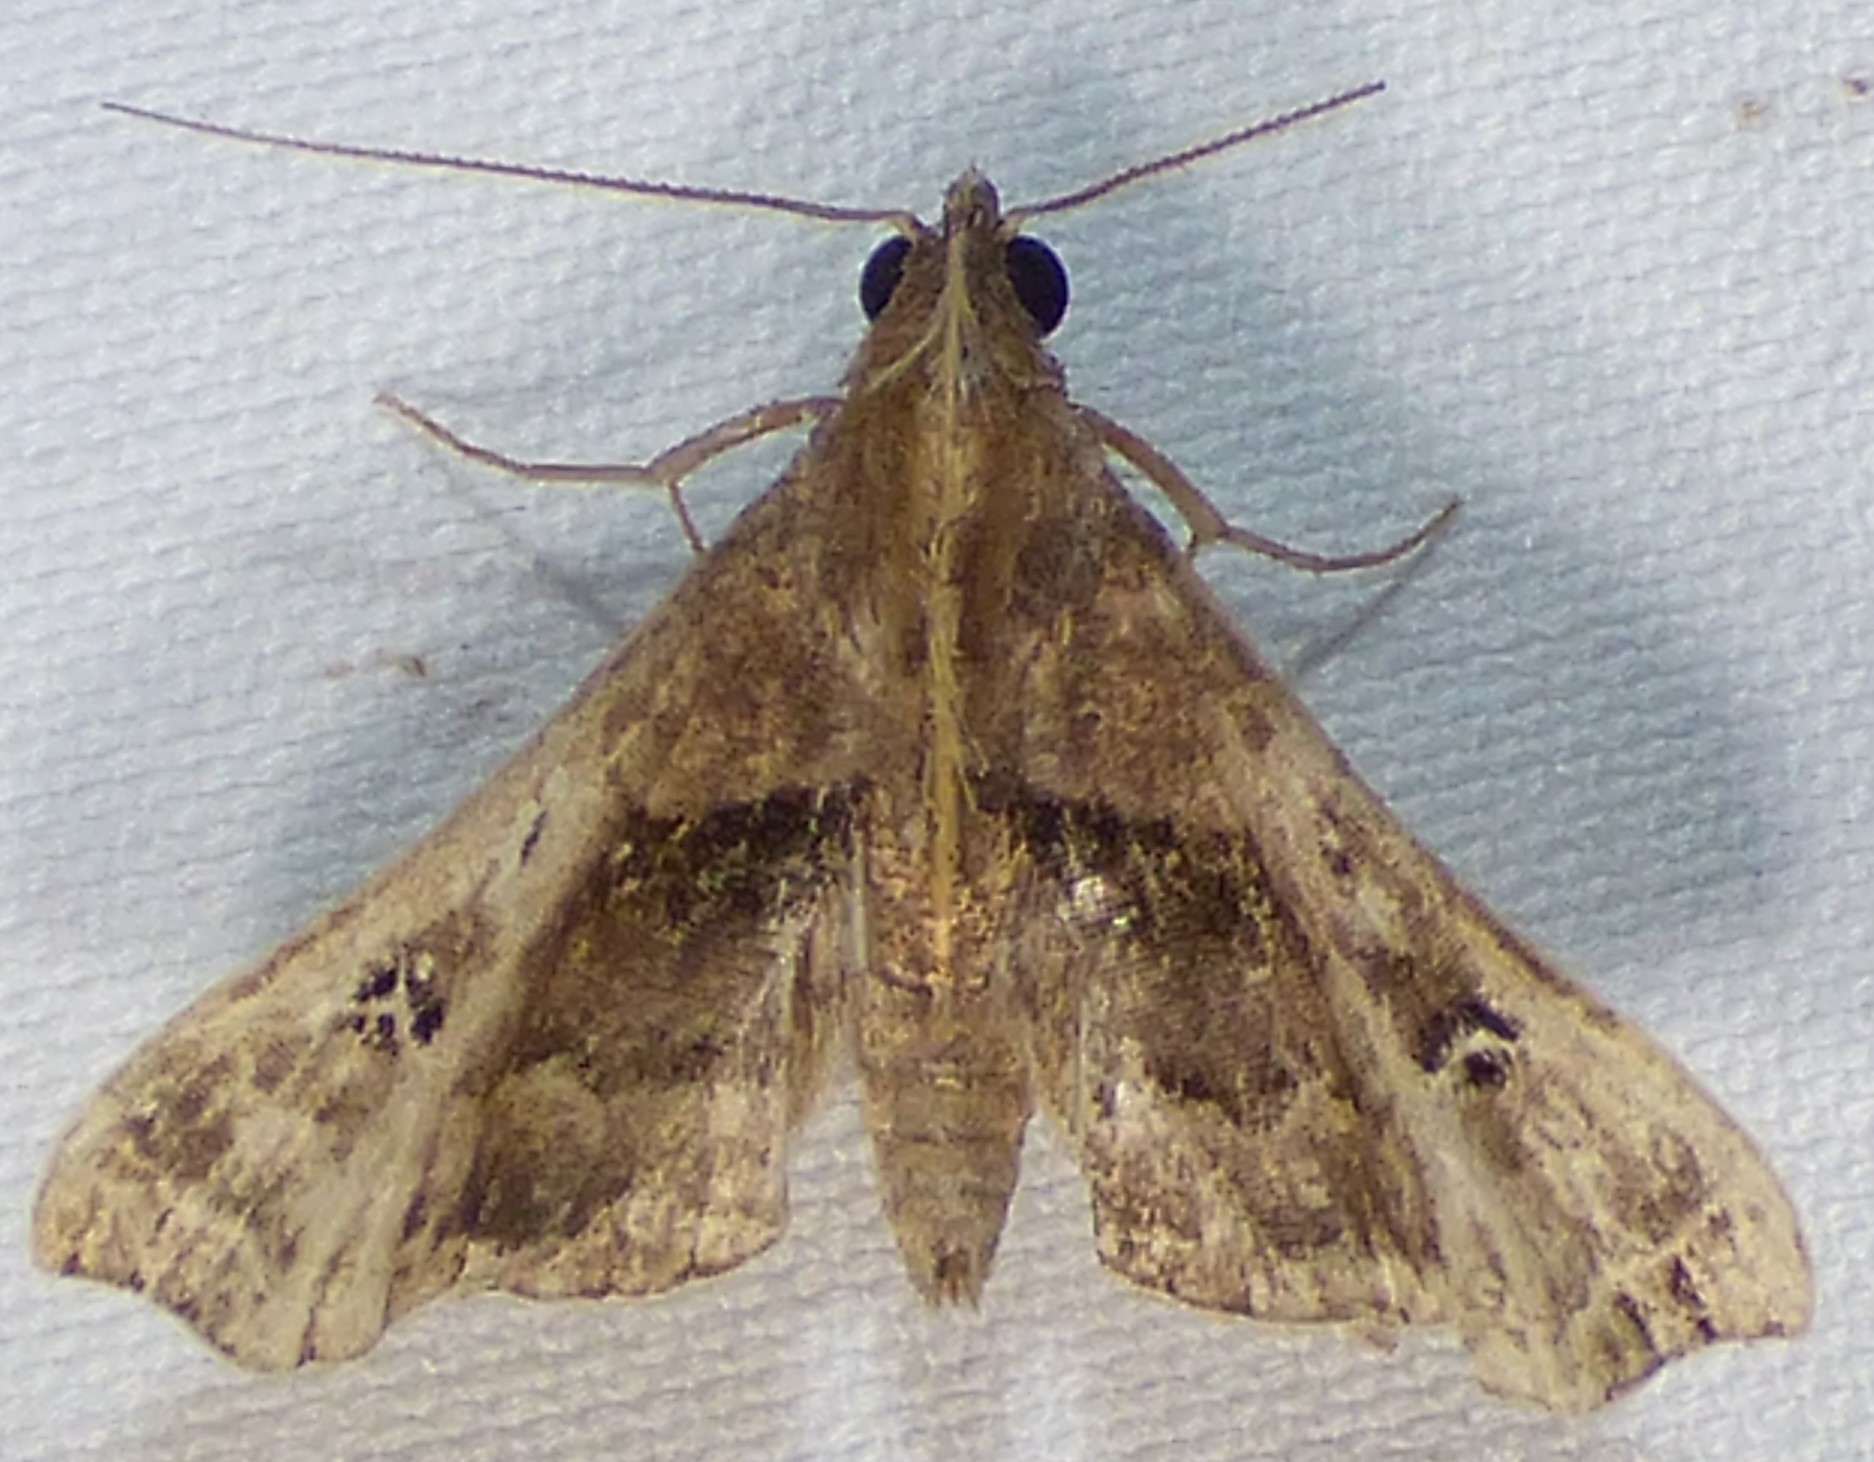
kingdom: Animalia
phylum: Arthropoda
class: Insecta
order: Lepidoptera
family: Erebidae
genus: Palthis
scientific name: Palthis asopialis
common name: Faint-spotted palthis moth
